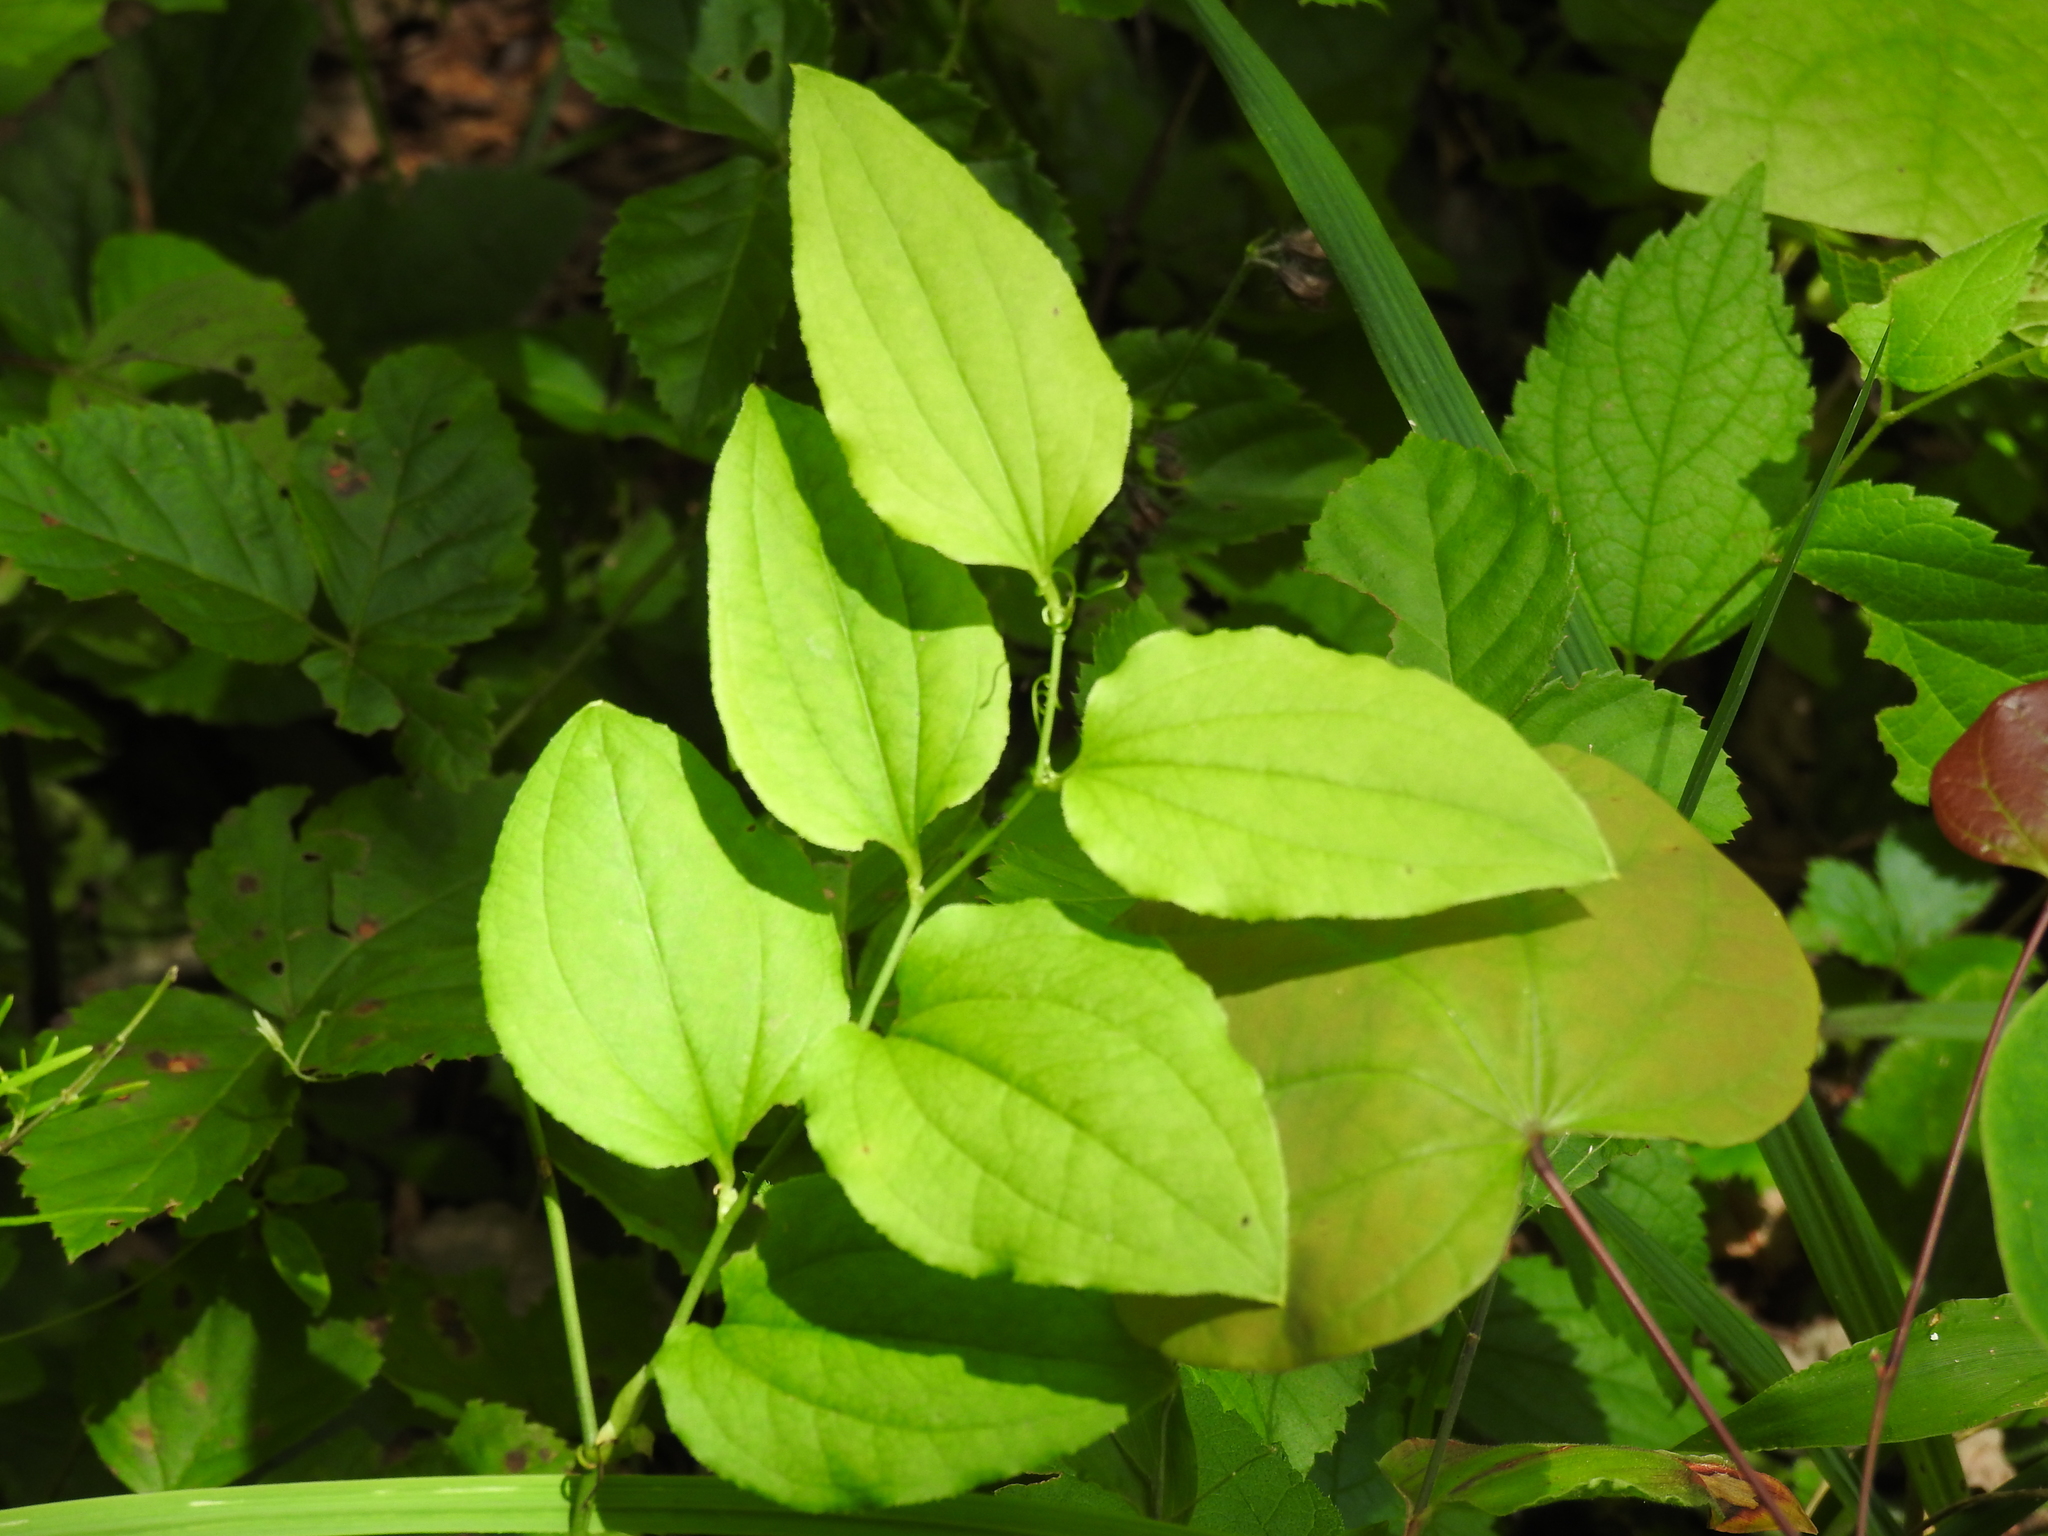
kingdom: Plantae
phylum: Tracheophyta
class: Liliopsida
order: Liliales
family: Smilacaceae
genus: Smilax
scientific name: Smilax tamnoides
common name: Hellfetter
